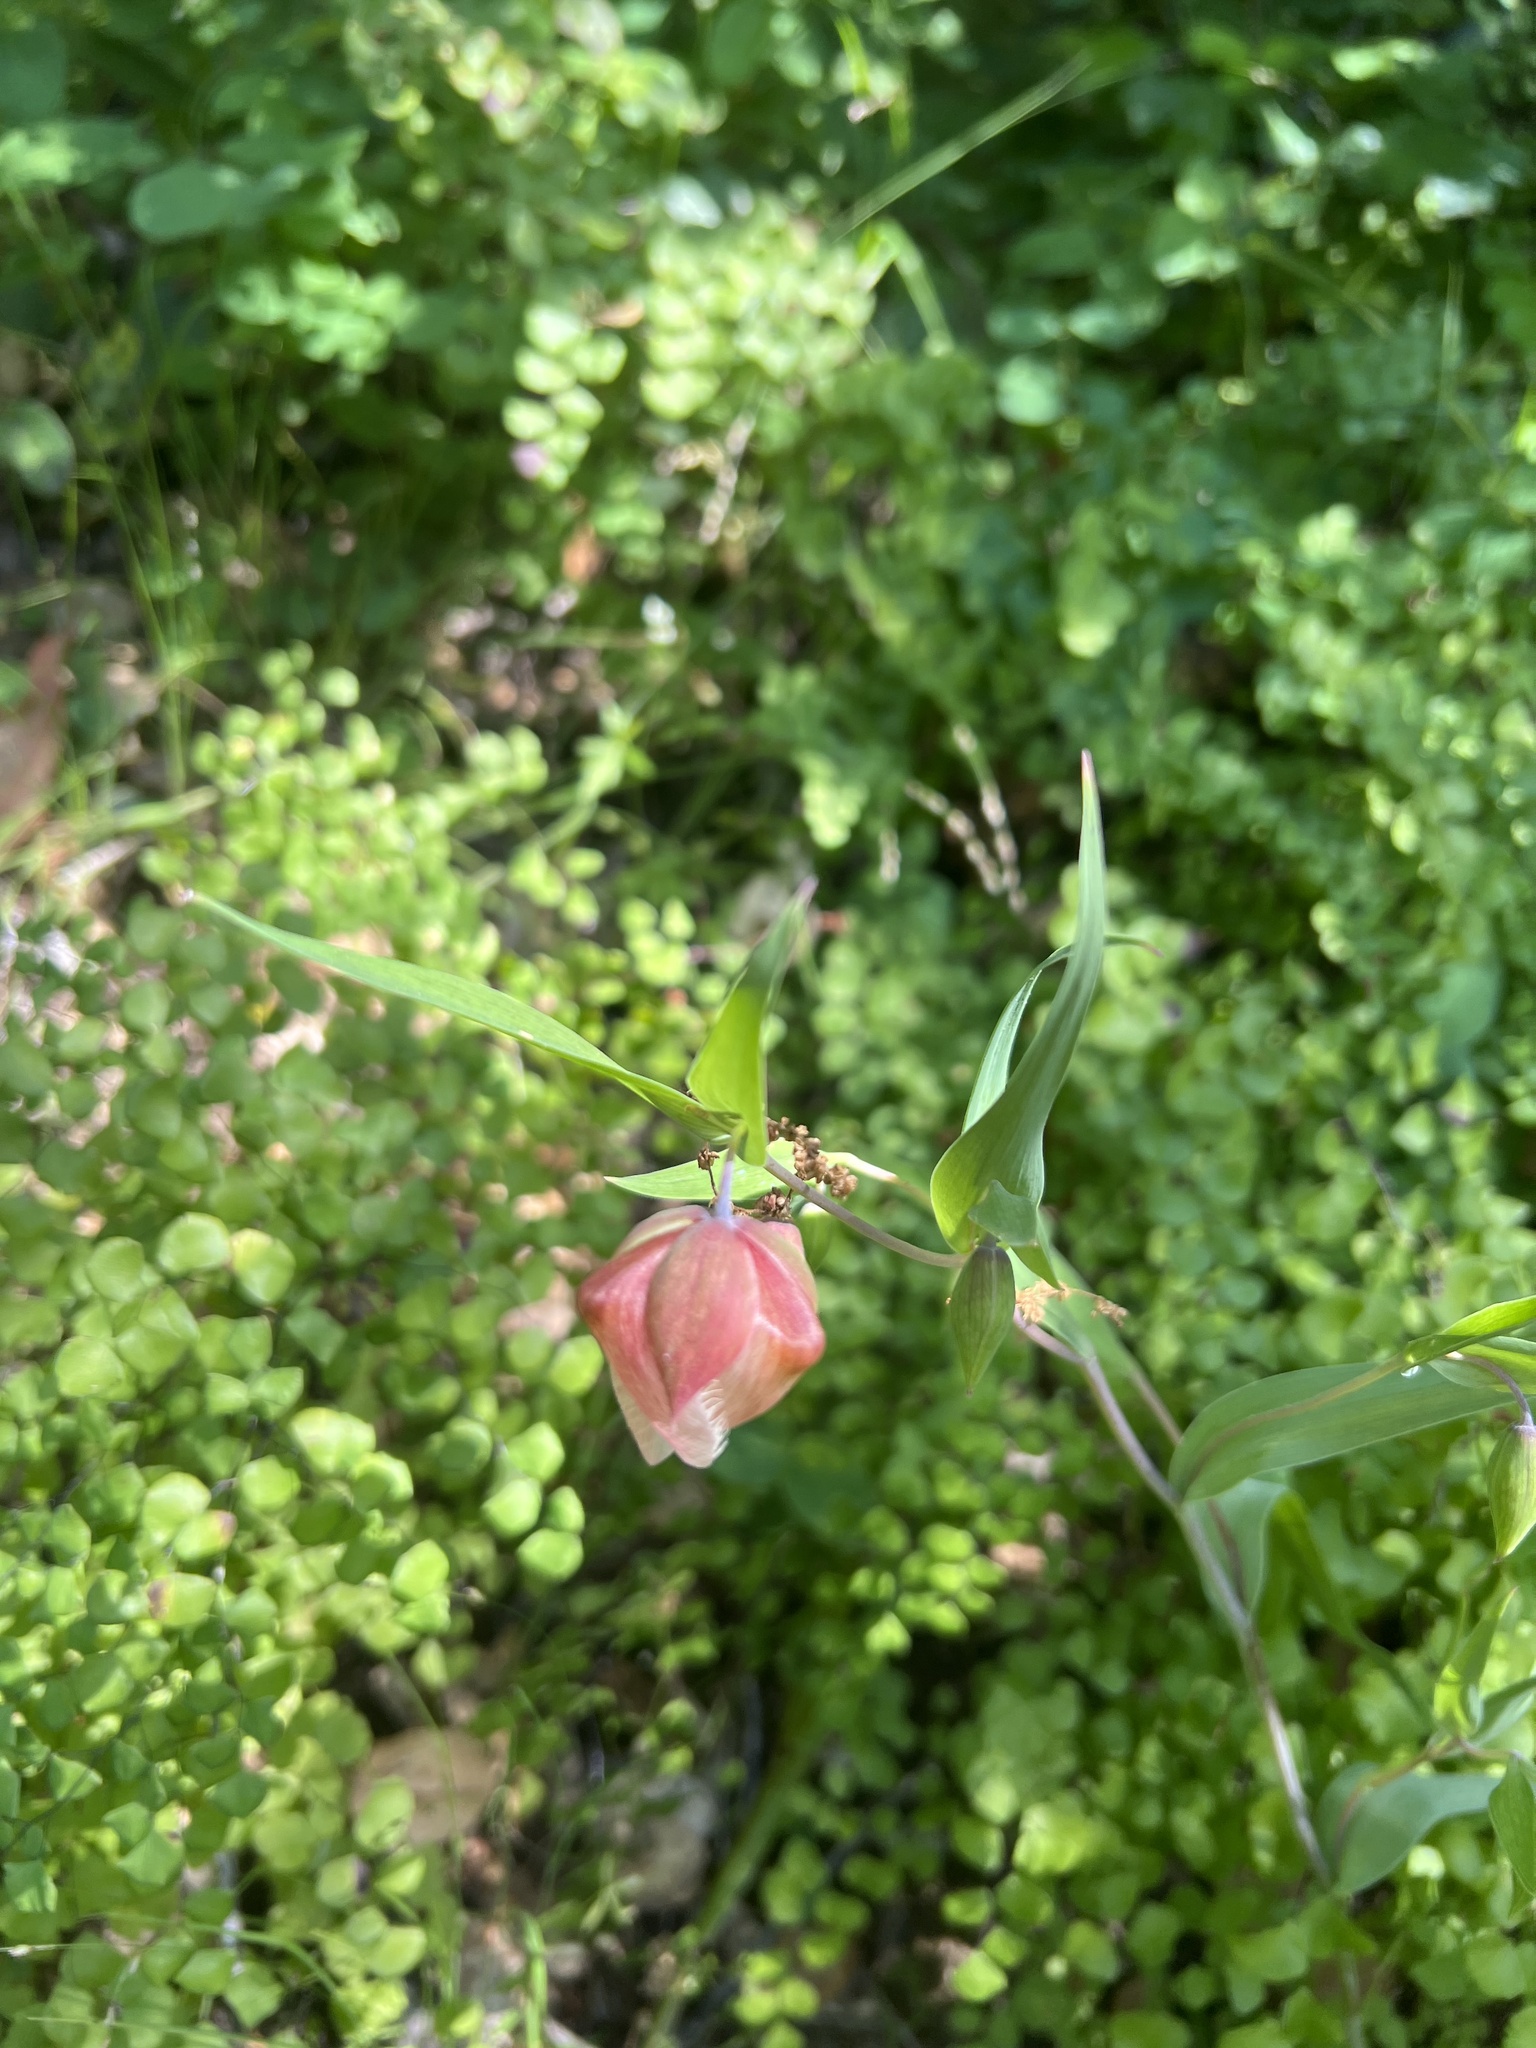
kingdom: Plantae
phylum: Tracheophyta
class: Liliopsida
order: Liliales
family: Liliaceae
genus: Calochortus
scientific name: Calochortus albus
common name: Fairy-lantern
